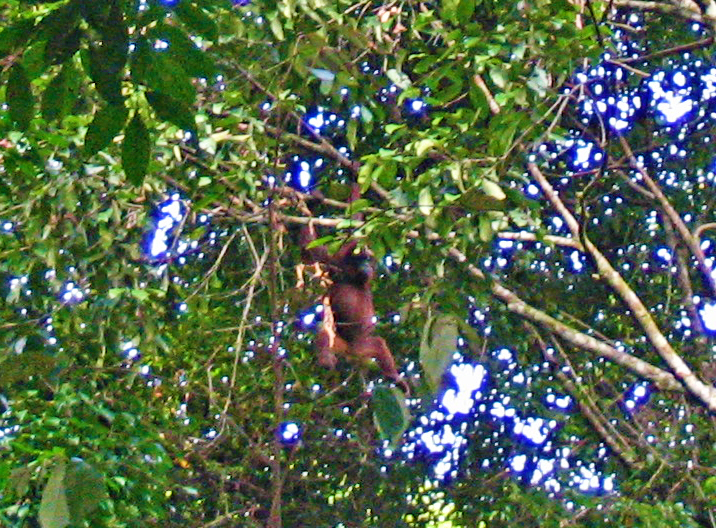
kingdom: Animalia
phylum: Chordata
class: Mammalia
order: Primates
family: Hominidae
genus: Pongo
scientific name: Pongo pygmaeus
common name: Bornean orangutan
